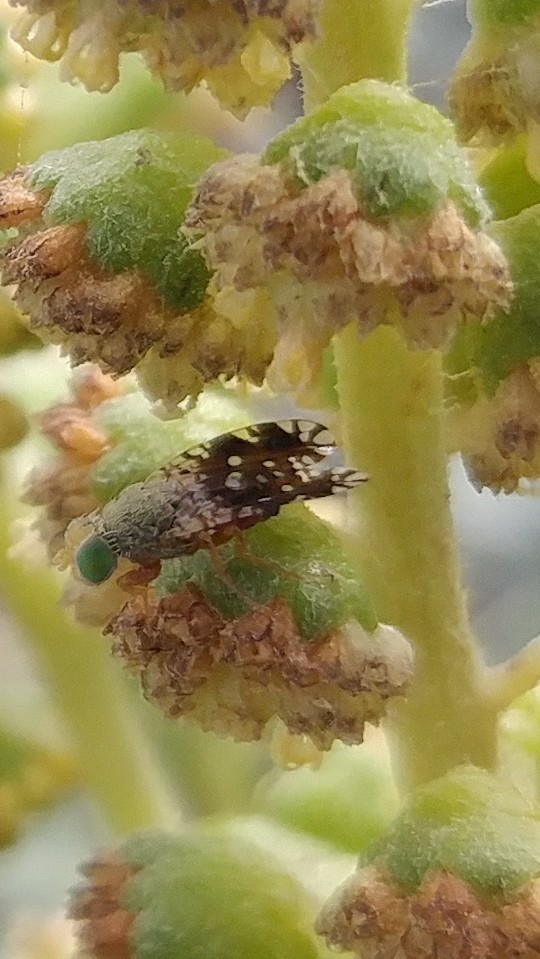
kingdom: Animalia
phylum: Arthropoda
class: Insecta
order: Diptera
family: Tephritidae
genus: Euaresta
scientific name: Euaresta stelligera
